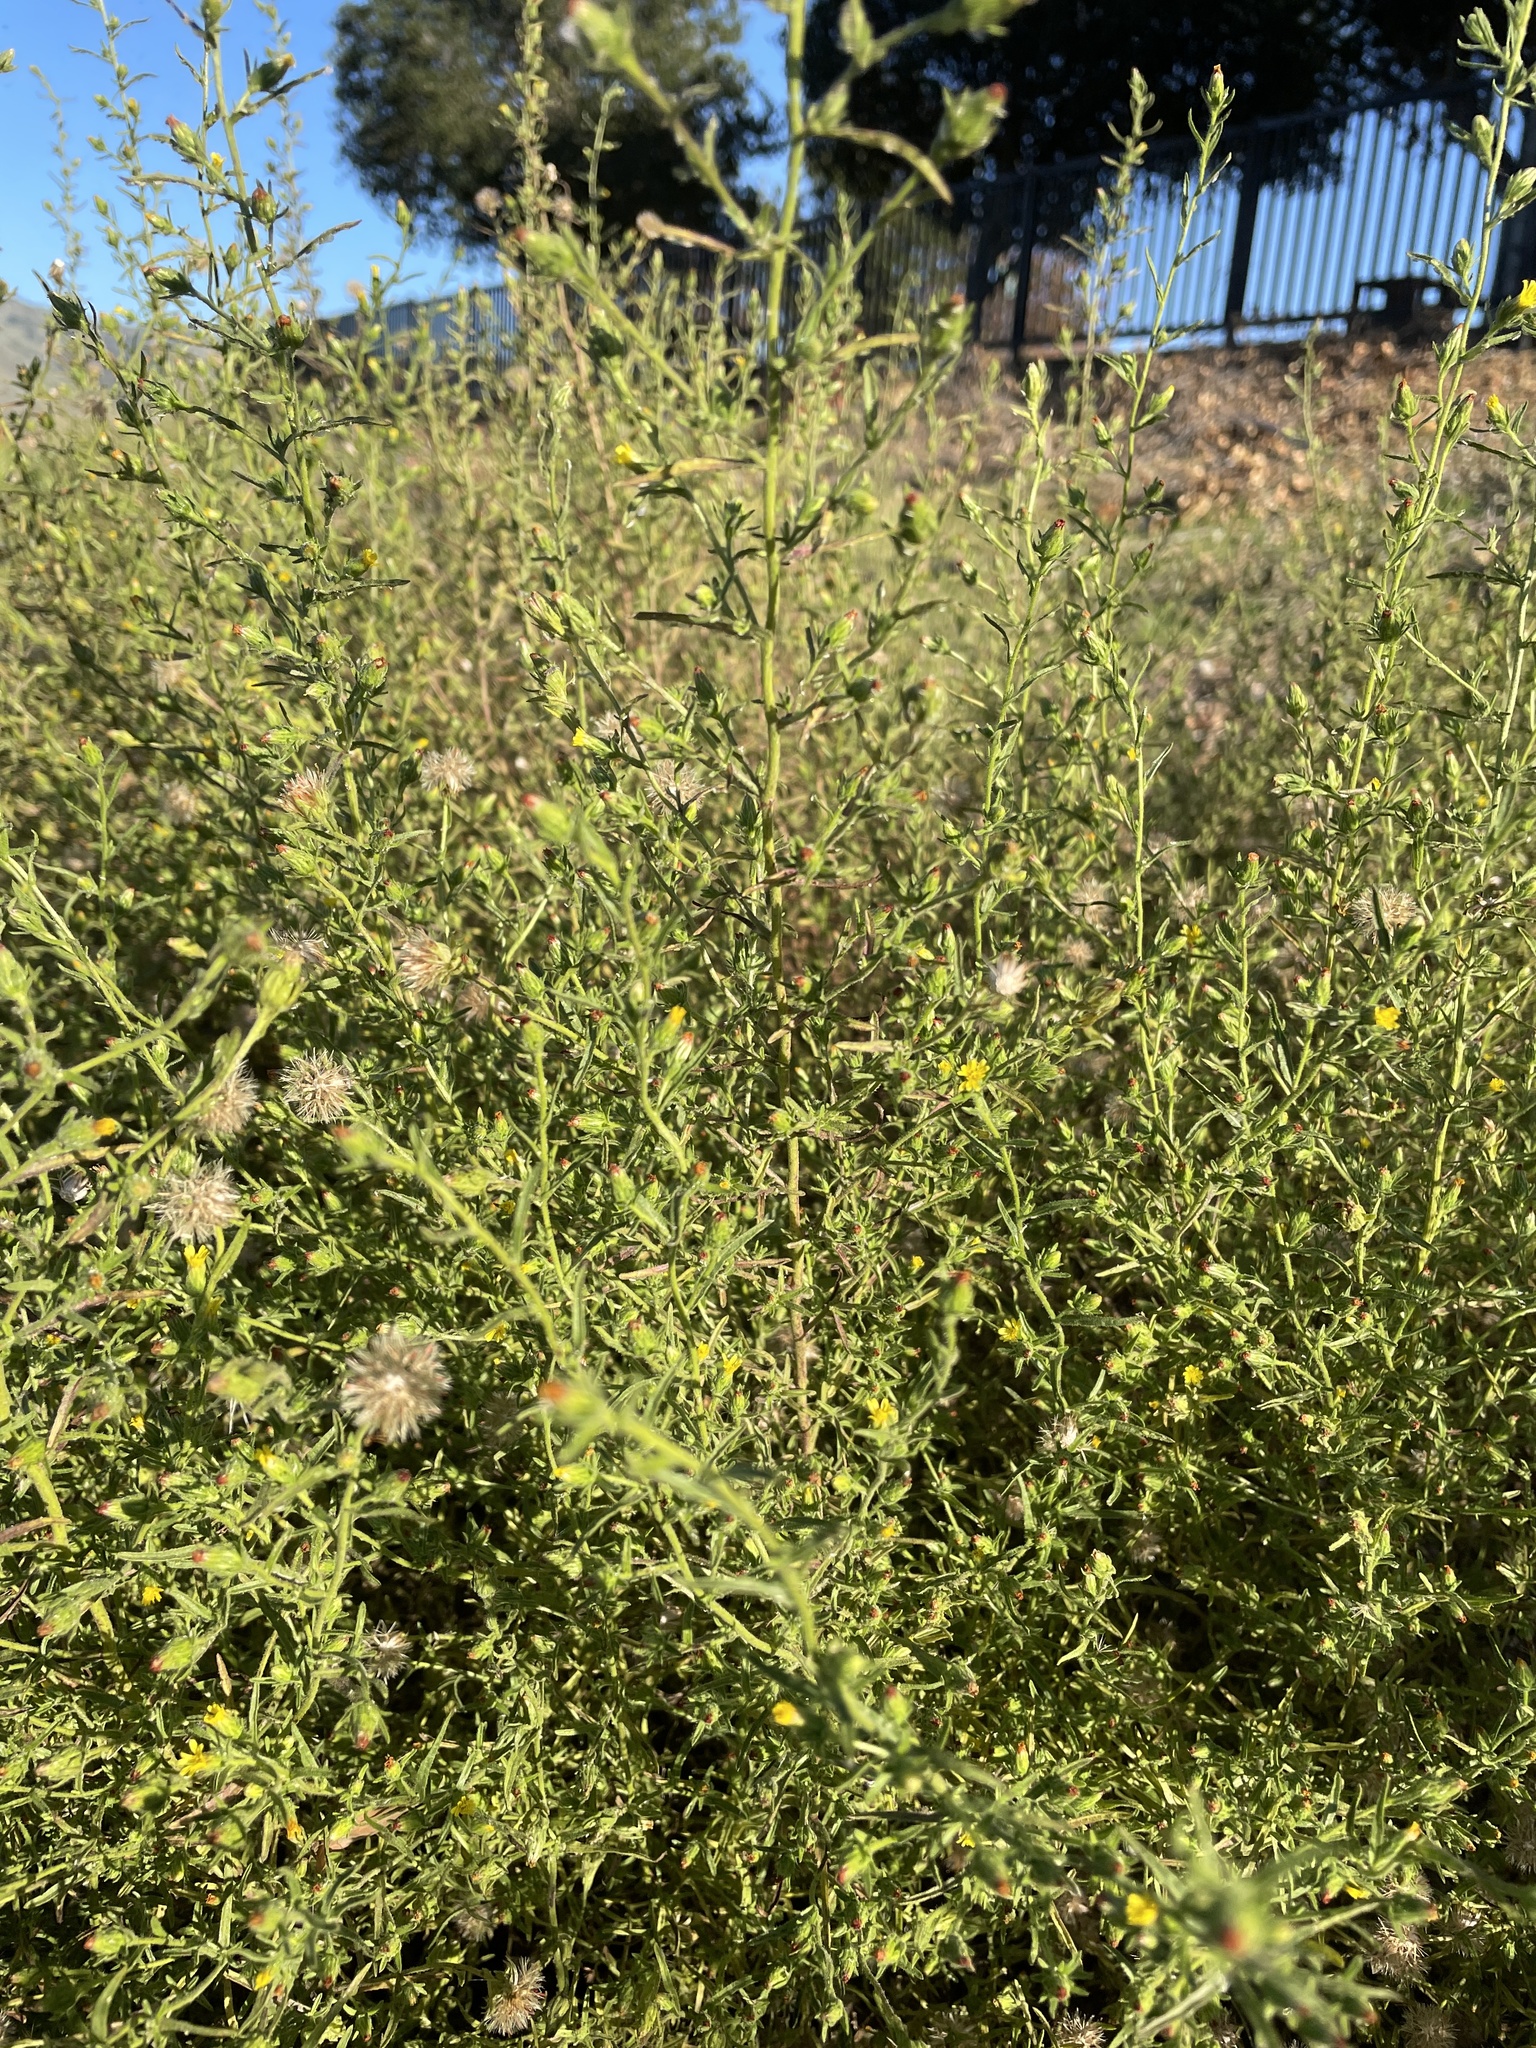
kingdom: Plantae
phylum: Tracheophyta
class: Magnoliopsida
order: Asterales
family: Asteraceae
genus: Dittrichia
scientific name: Dittrichia graveolens
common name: Stinking fleabane
